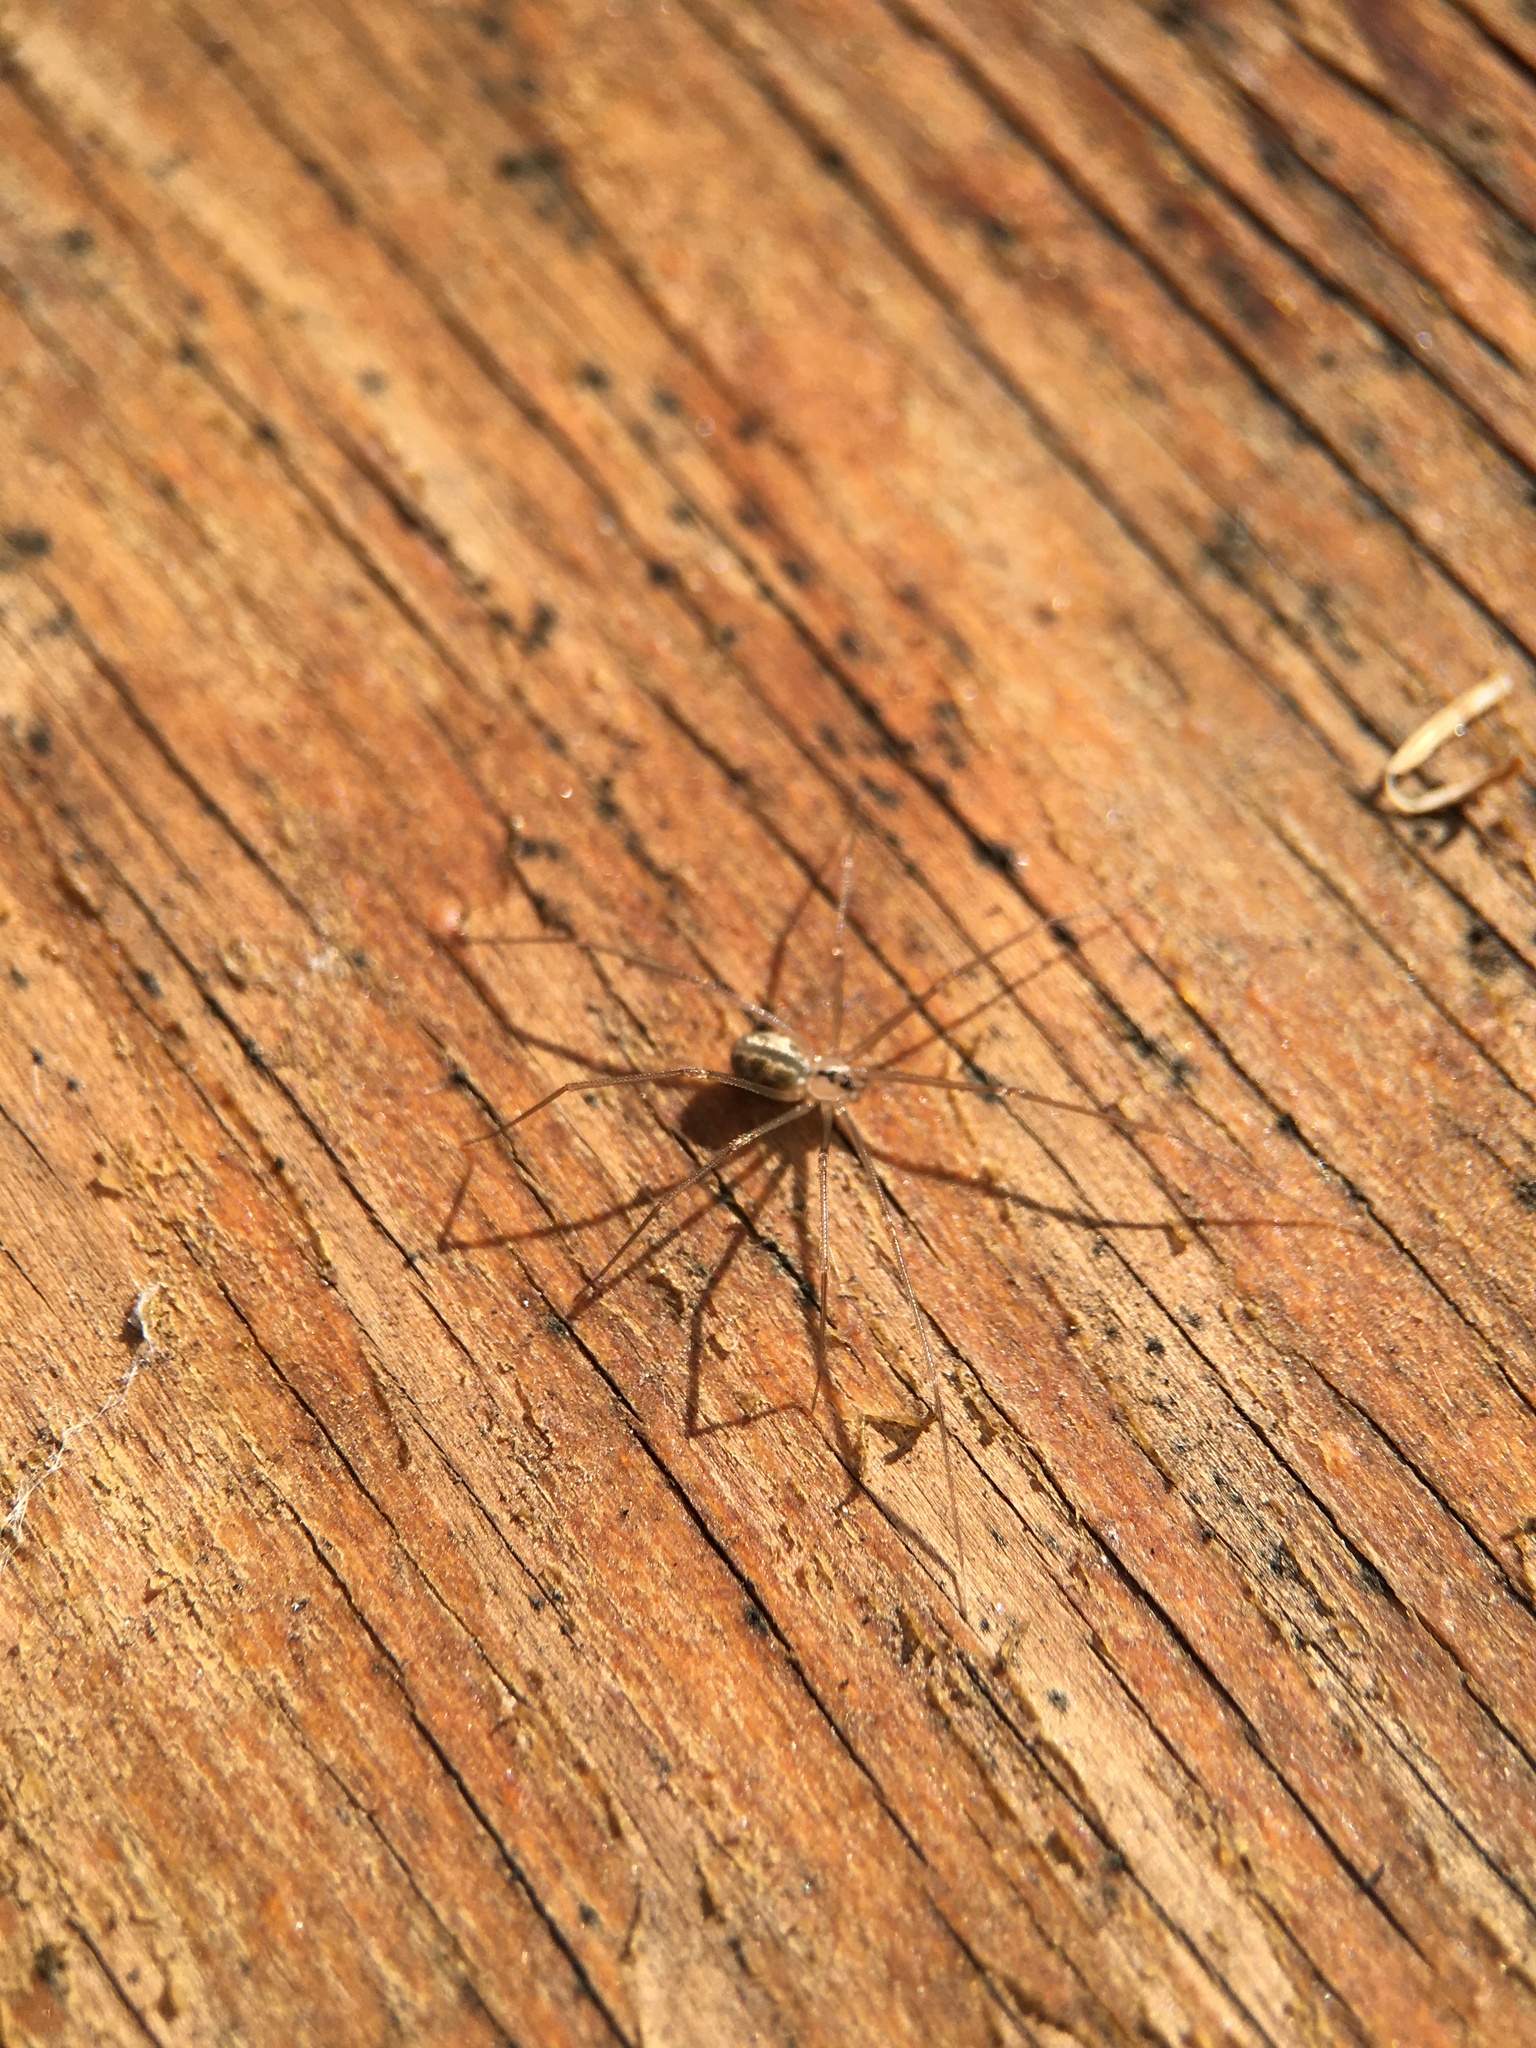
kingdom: Animalia
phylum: Arthropoda
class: Arachnida
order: Araneae
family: Pholcidae
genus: Psilochorus
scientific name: Psilochorus hesperus
